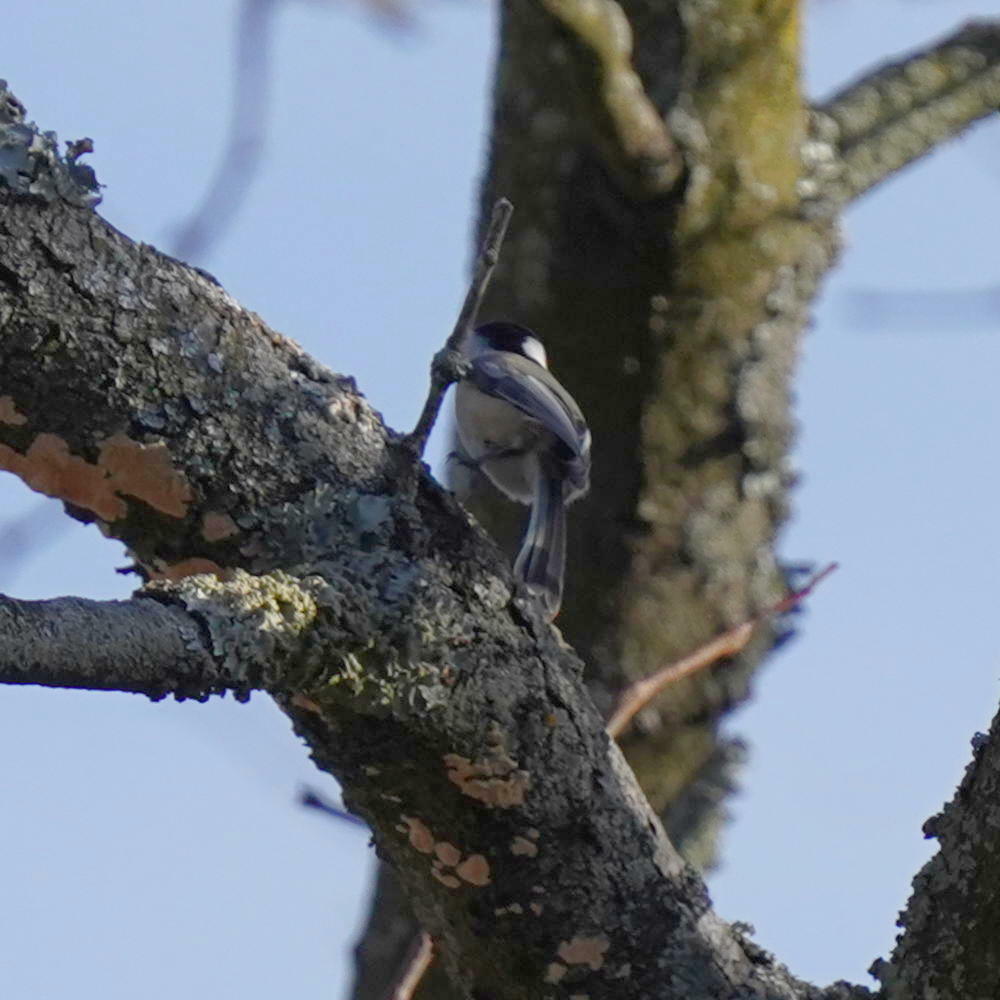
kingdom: Animalia
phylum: Chordata
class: Aves
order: Passeriformes
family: Paridae
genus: Poecile
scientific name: Poecile atricapillus
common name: Black-capped chickadee
